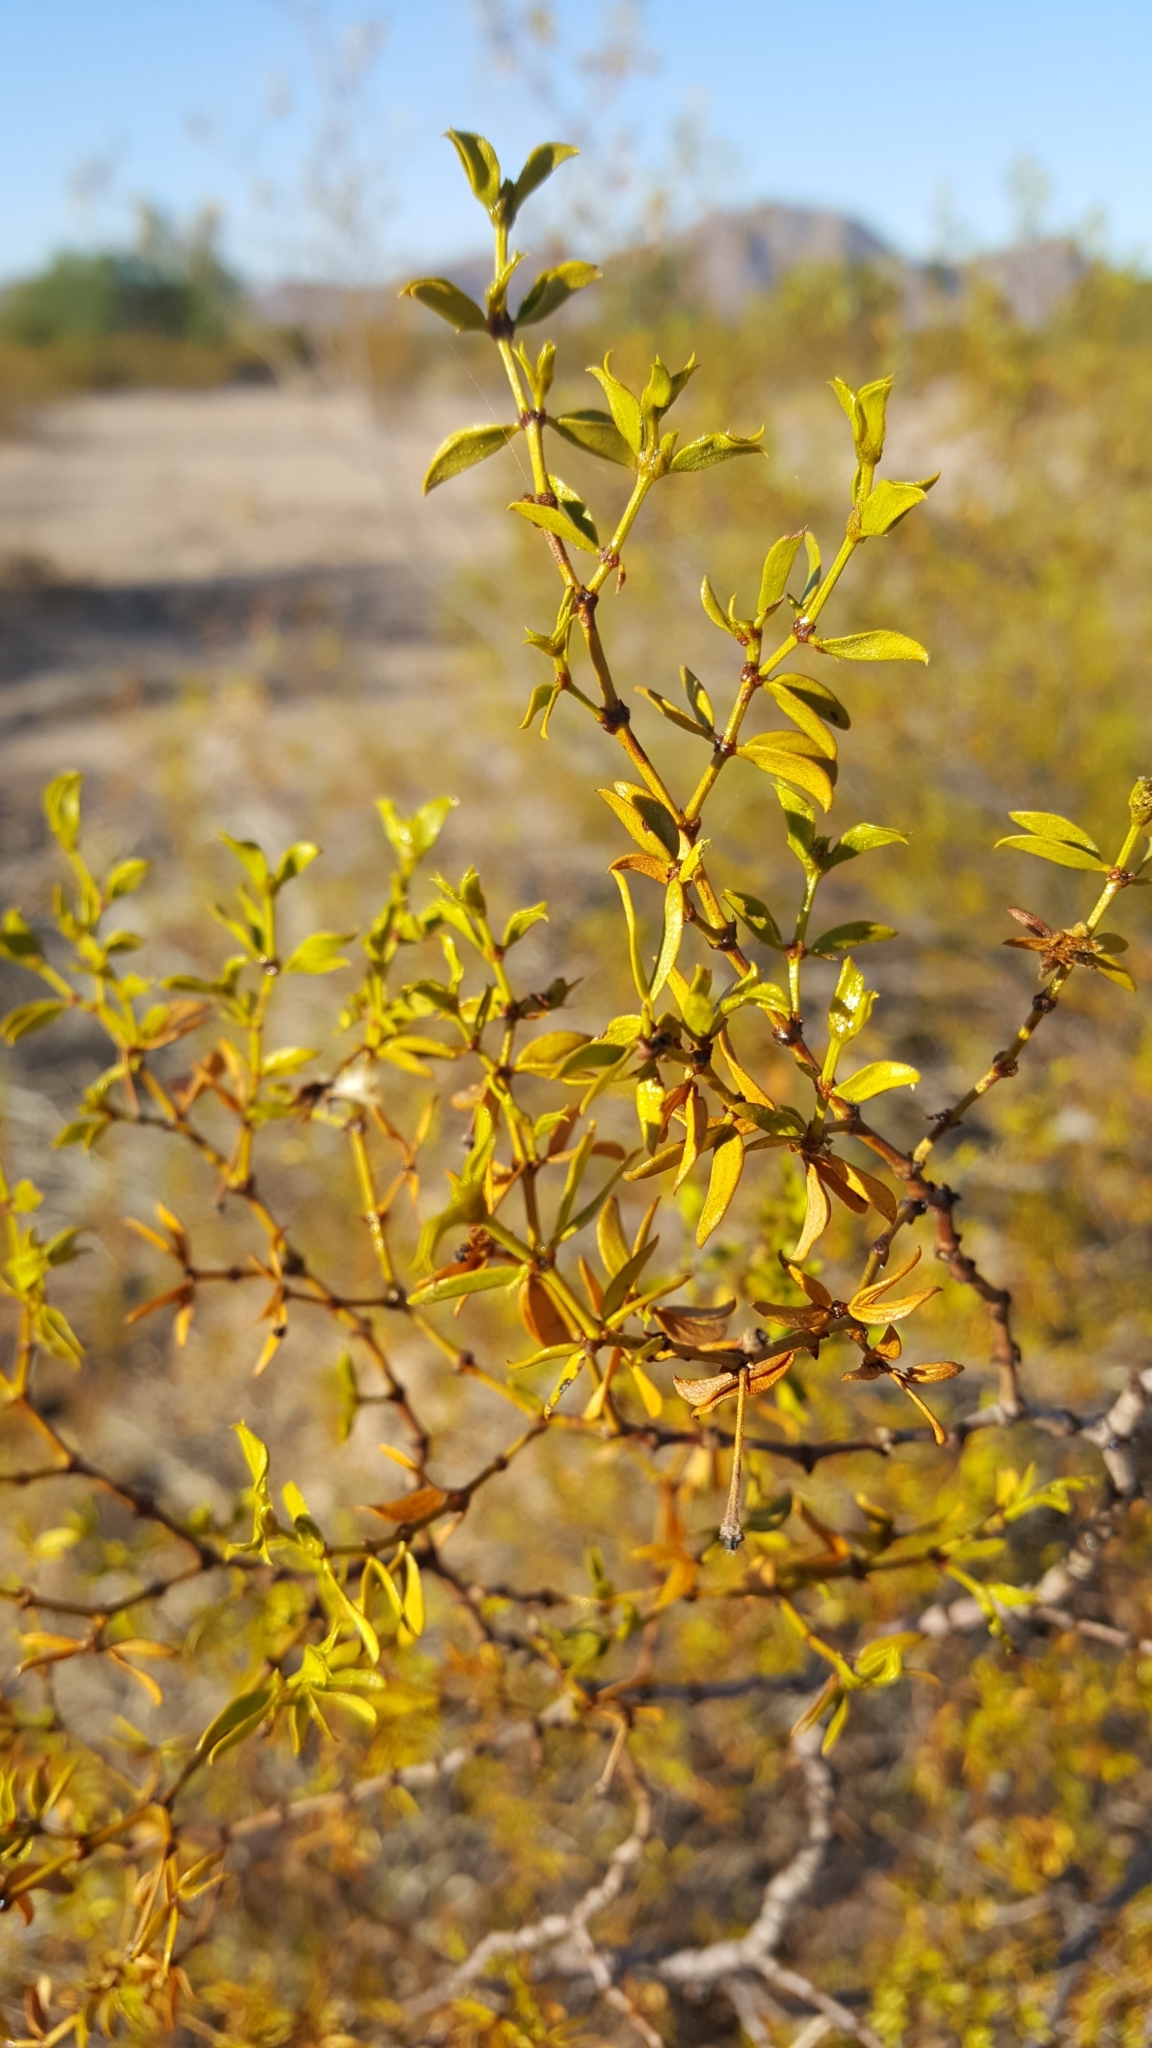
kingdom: Plantae
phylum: Tracheophyta
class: Magnoliopsida
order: Zygophyllales
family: Zygophyllaceae
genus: Larrea
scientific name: Larrea tridentata
